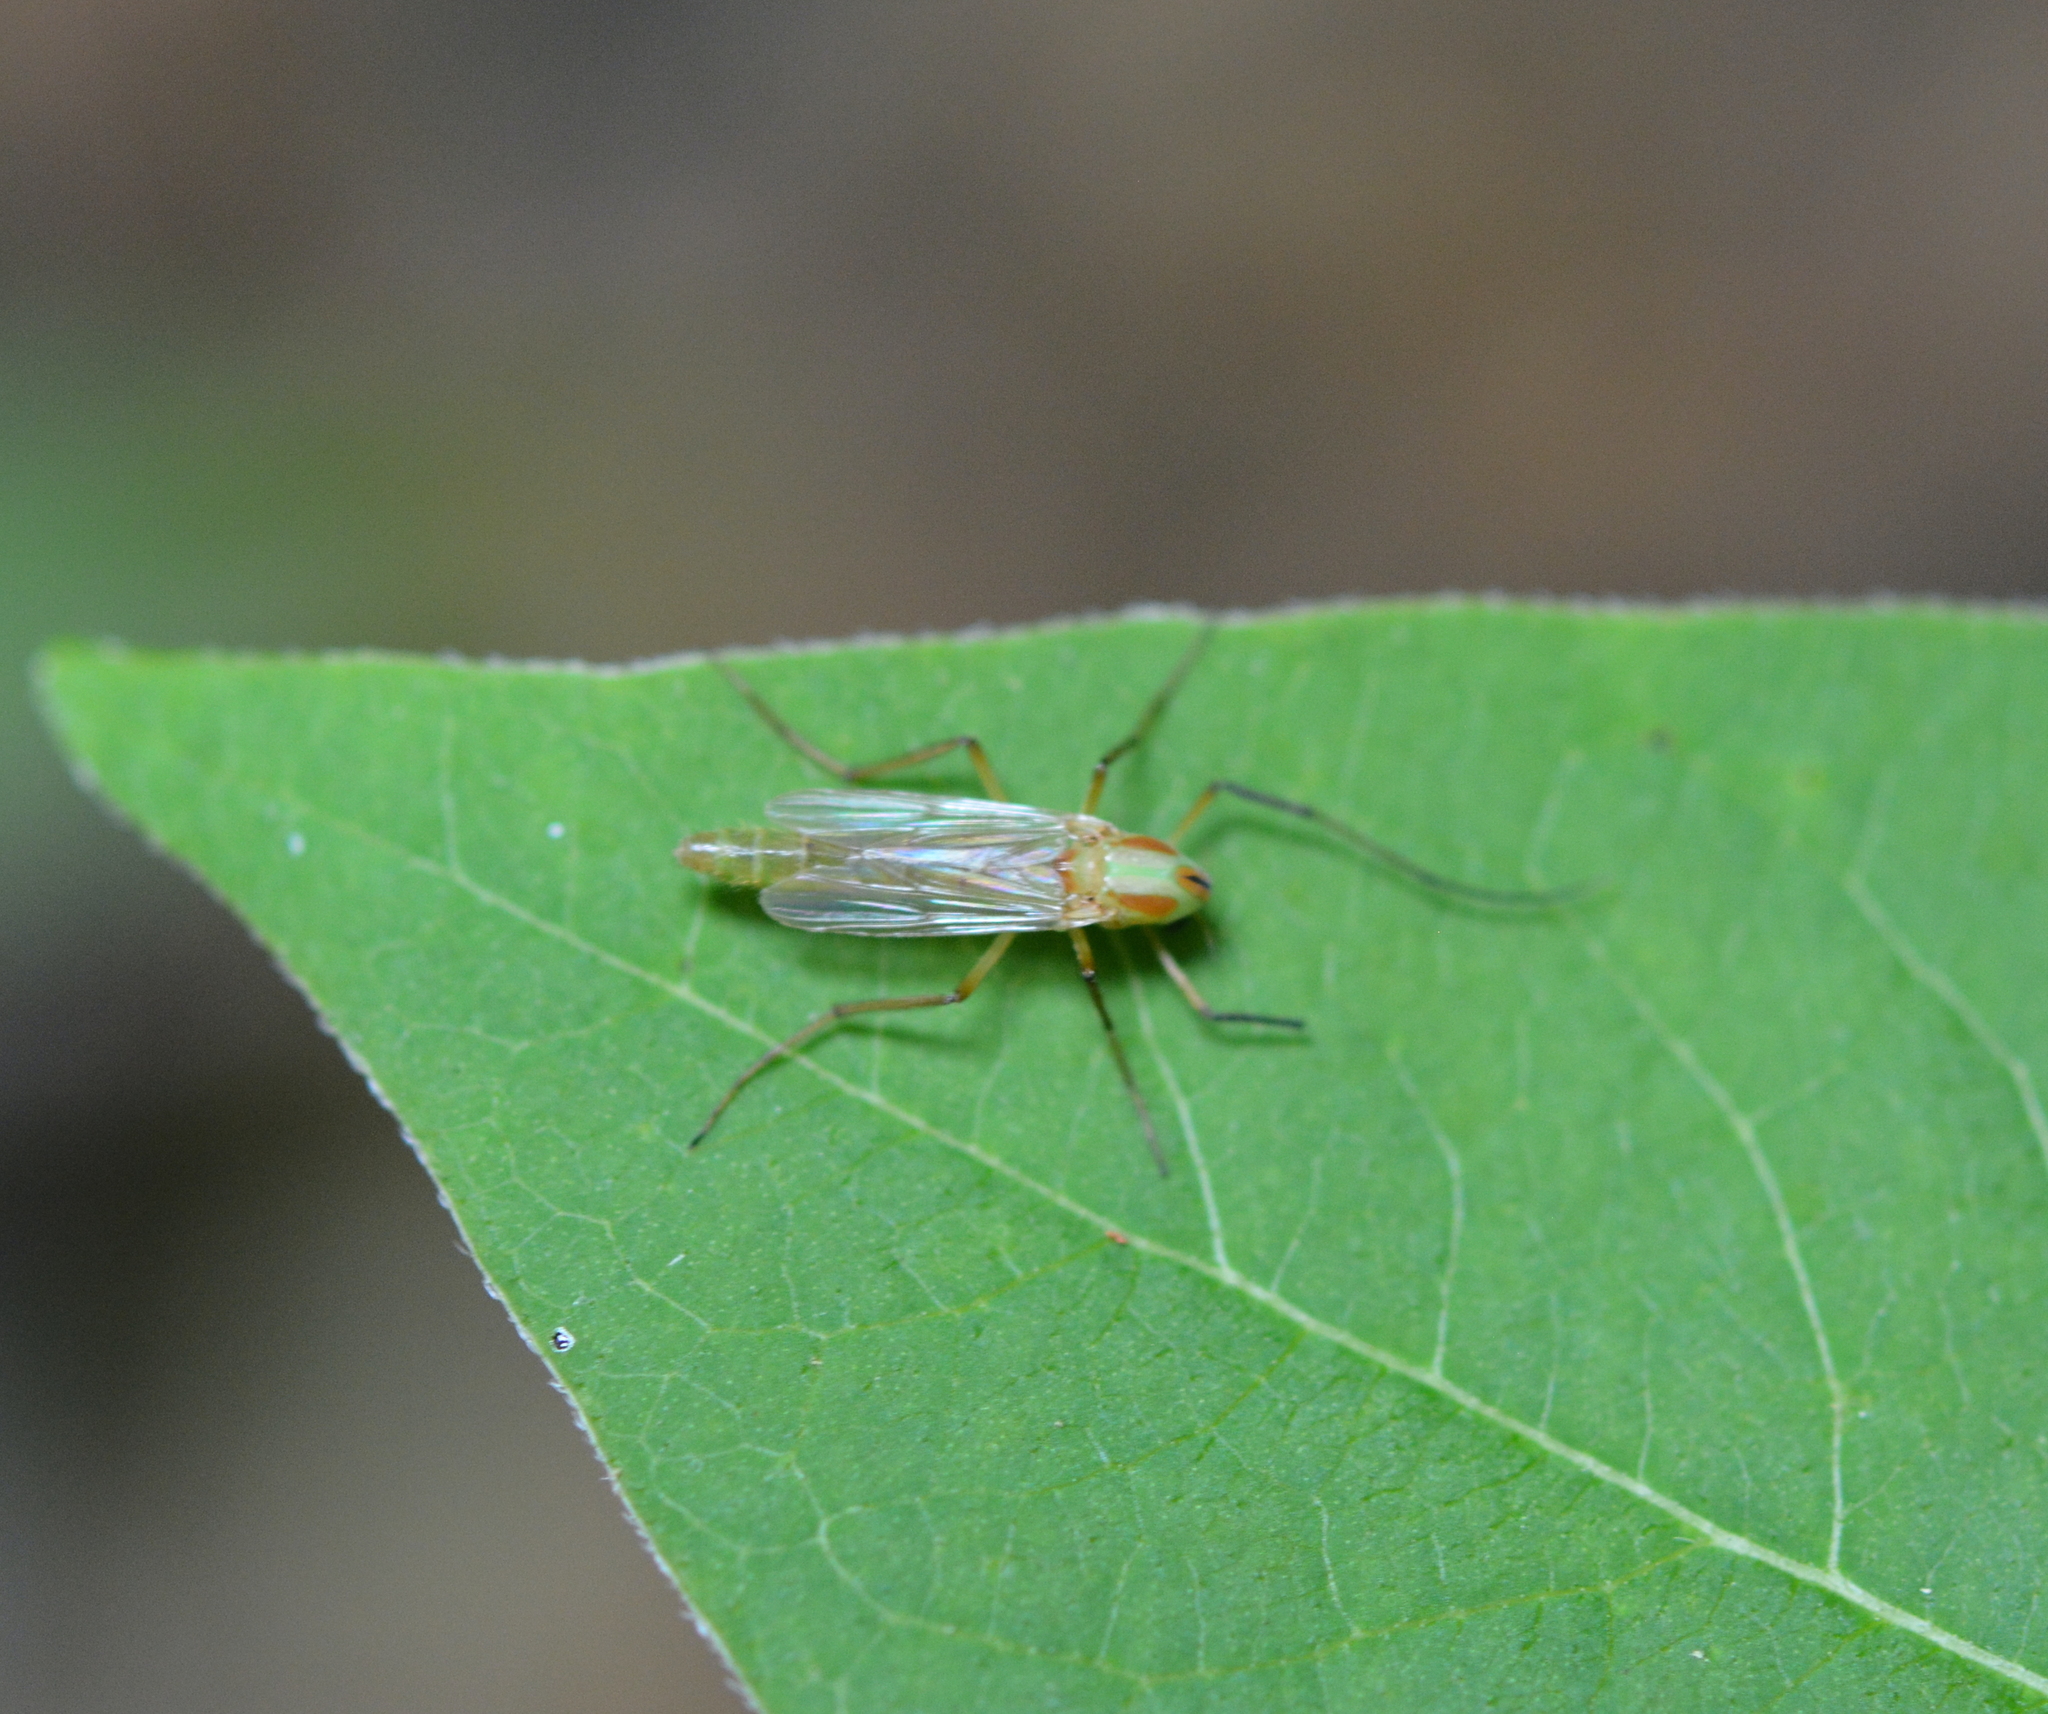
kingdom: Animalia
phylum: Arthropoda
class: Insecta
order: Diptera
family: Chironomidae
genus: Axarus
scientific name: Axarus
